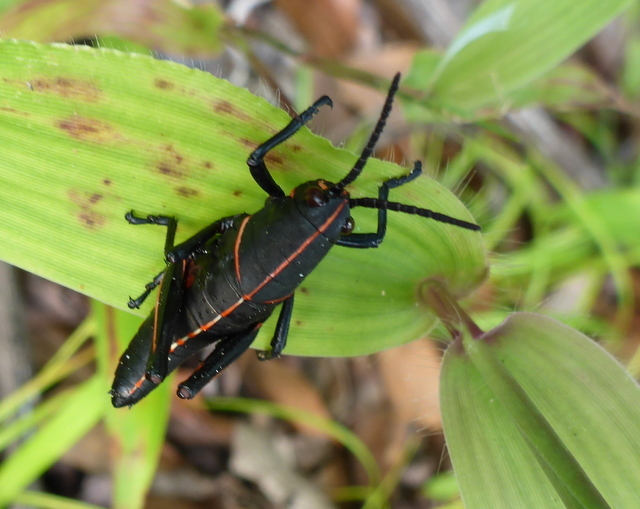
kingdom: Animalia
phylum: Arthropoda
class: Insecta
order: Orthoptera
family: Romaleidae
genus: Romalea
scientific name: Romalea microptera
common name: Eastern lubber grasshopper
